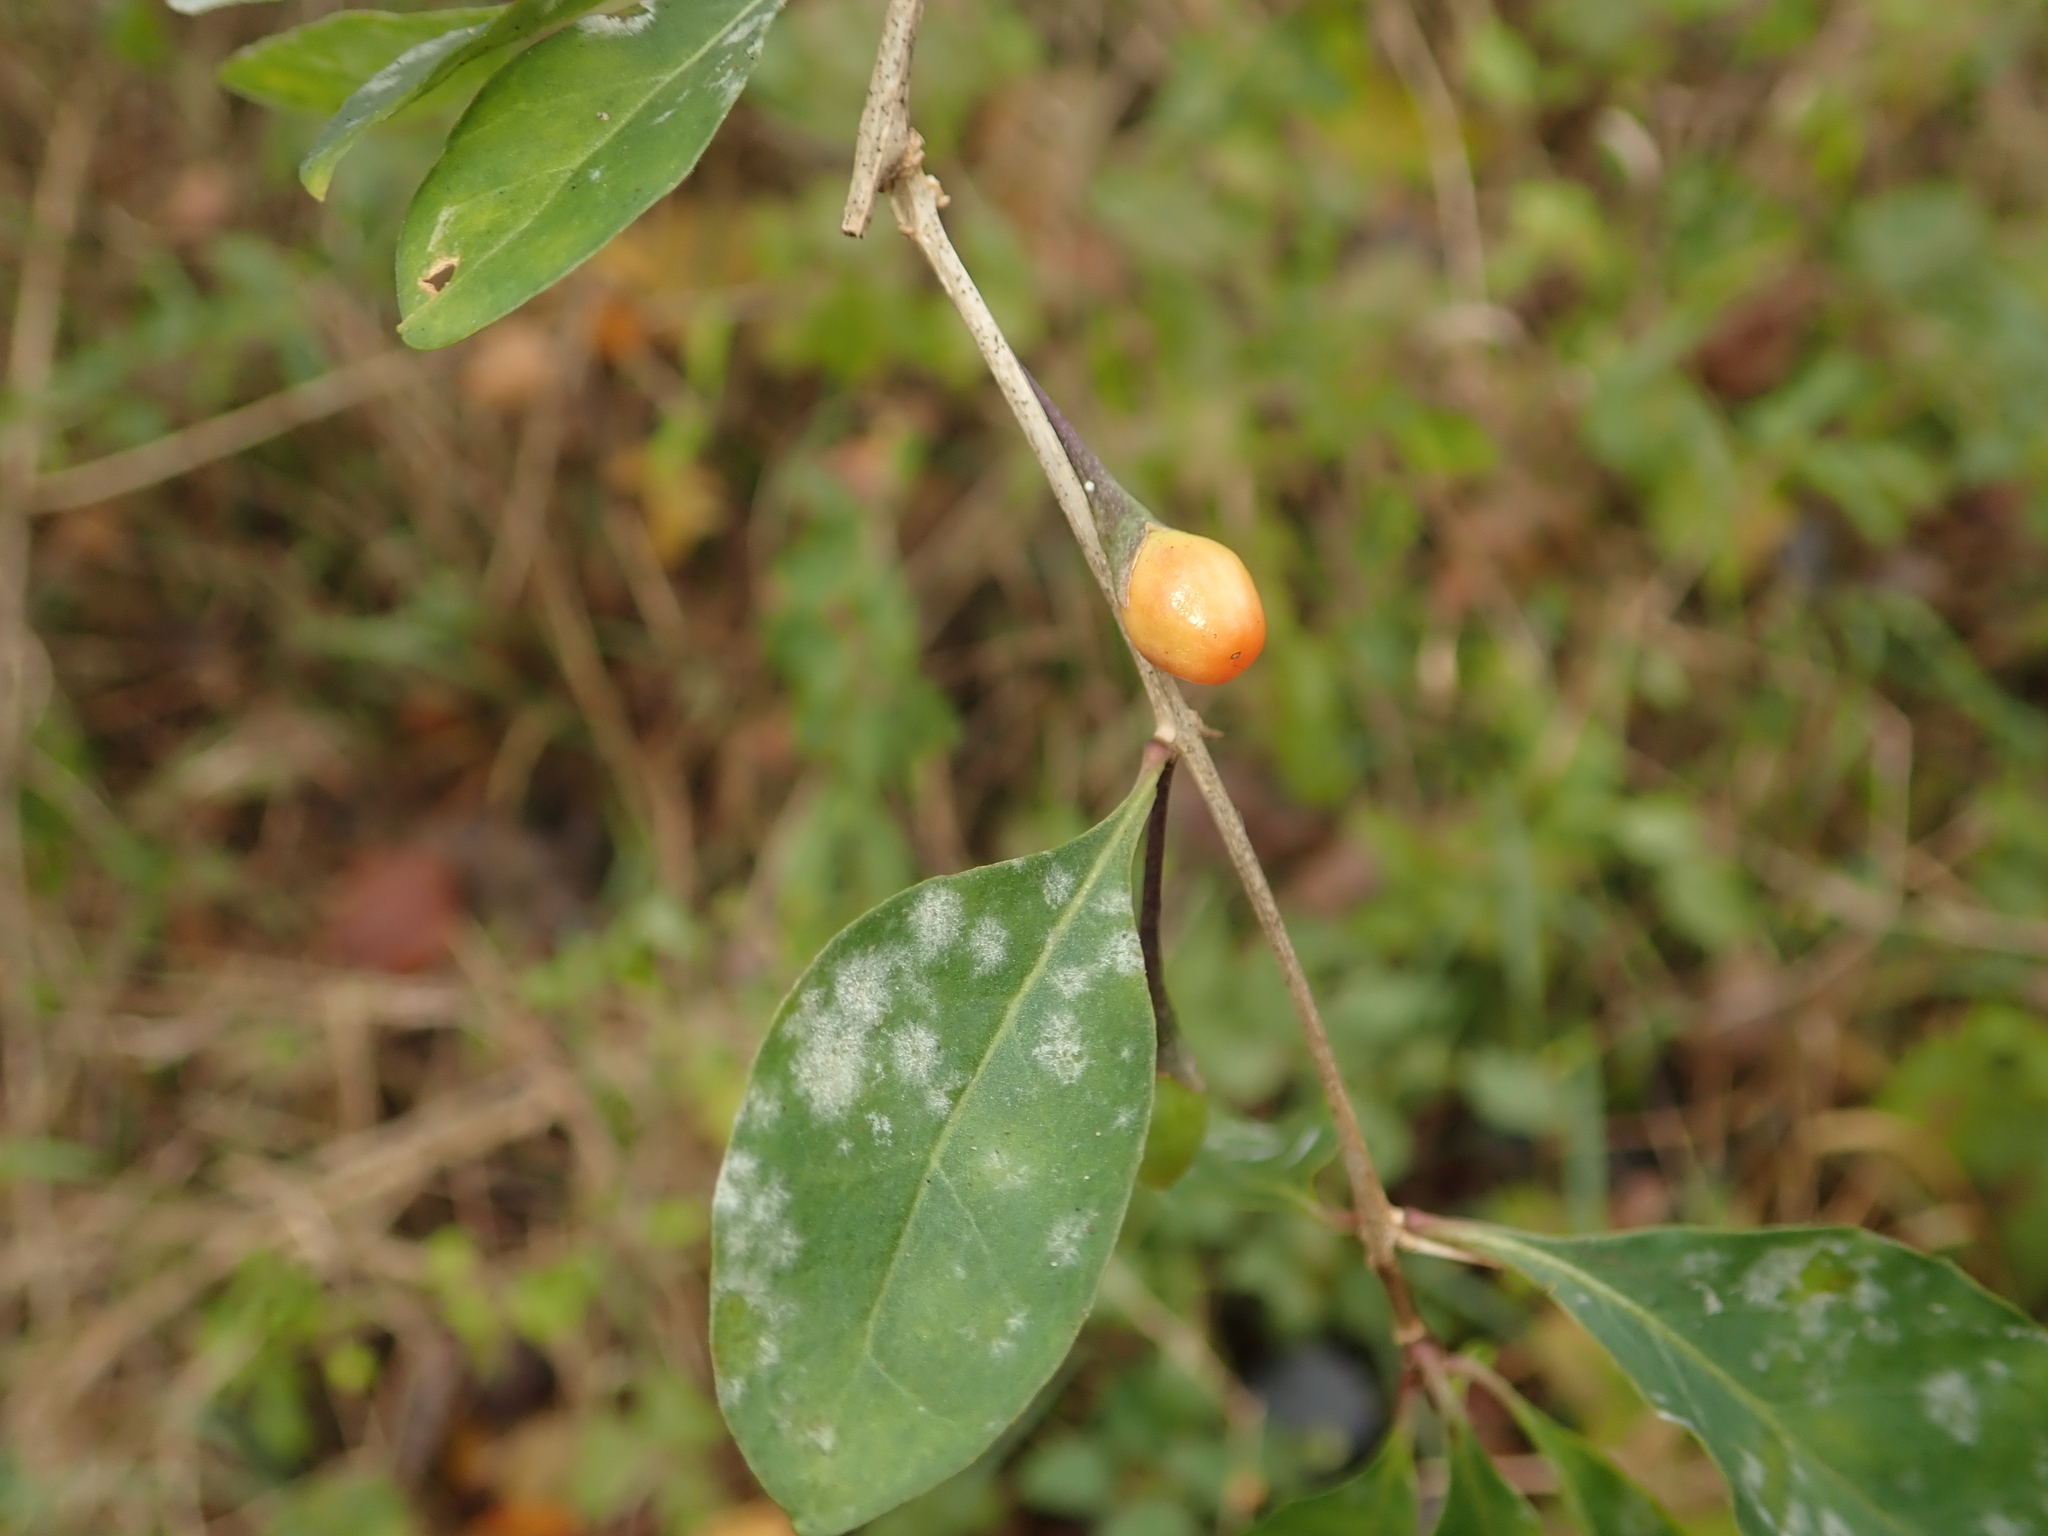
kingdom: Plantae
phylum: Tracheophyta
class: Magnoliopsida
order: Solanales
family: Solanaceae
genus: Lycium
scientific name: Lycium barbarum
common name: Duke of argyll's teaplant
